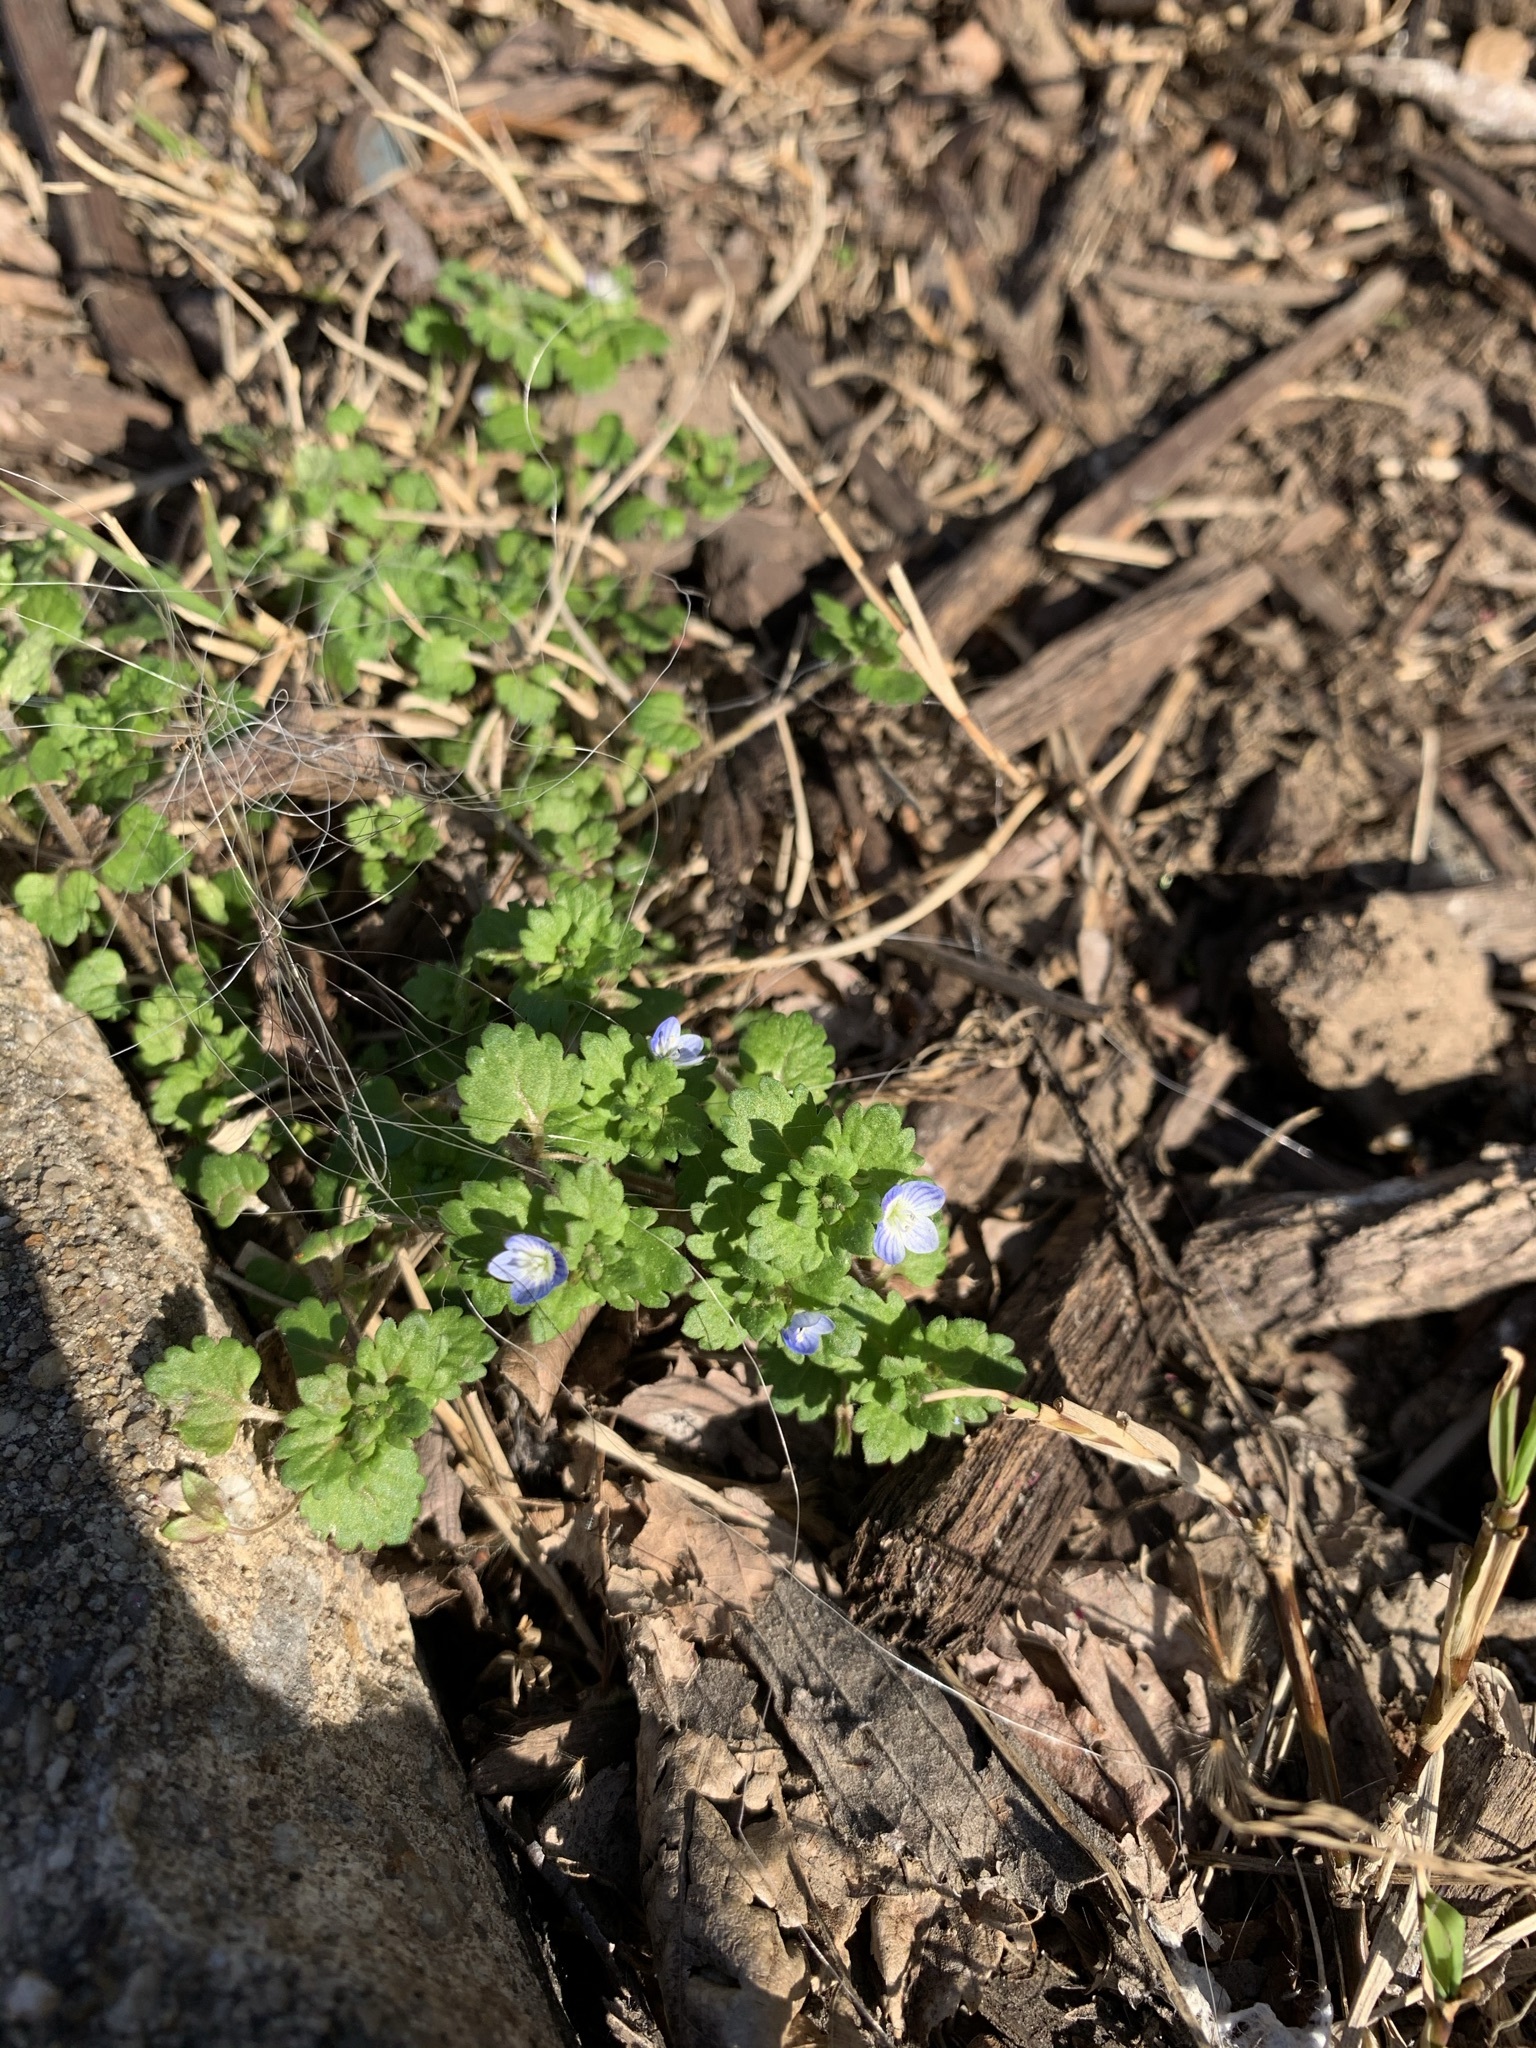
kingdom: Plantae
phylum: Tracheophyta
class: Magnoliopsida
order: Lamiales
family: Plantaginaceae
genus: Veronica
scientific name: Veronica persica
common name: Common field-speedwell
